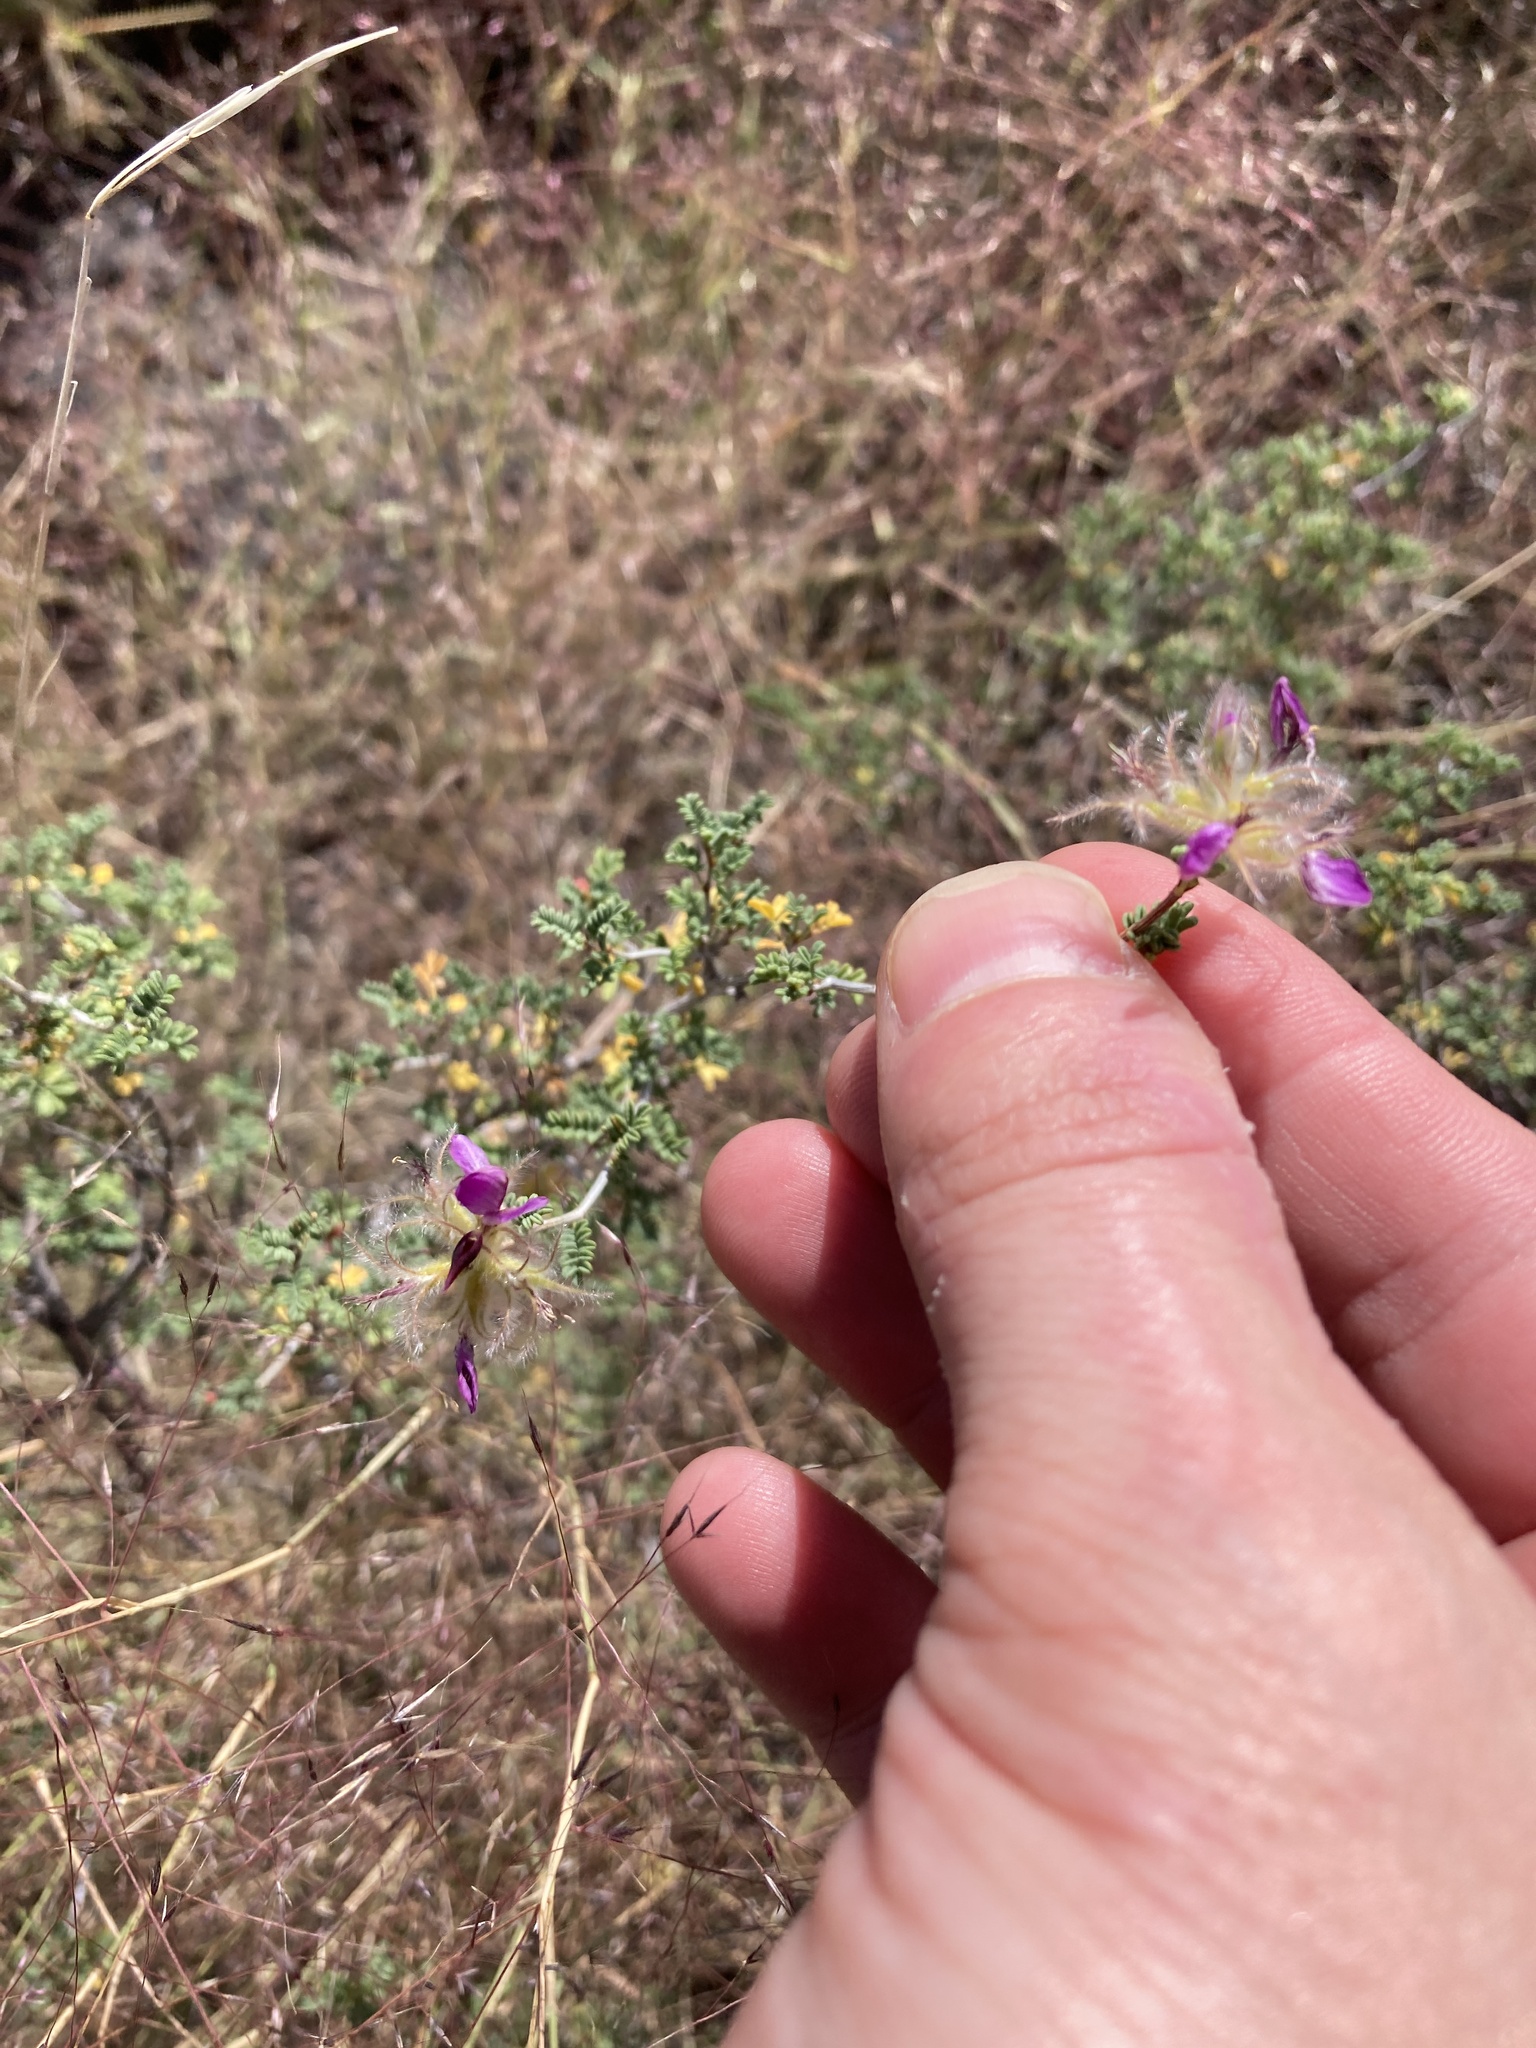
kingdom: Plantae
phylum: Tracheophyta
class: Magnoliopsida
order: Fabales
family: Fabaceae
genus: Dalea
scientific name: Dalea formosa
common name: Feather-plume dalea
